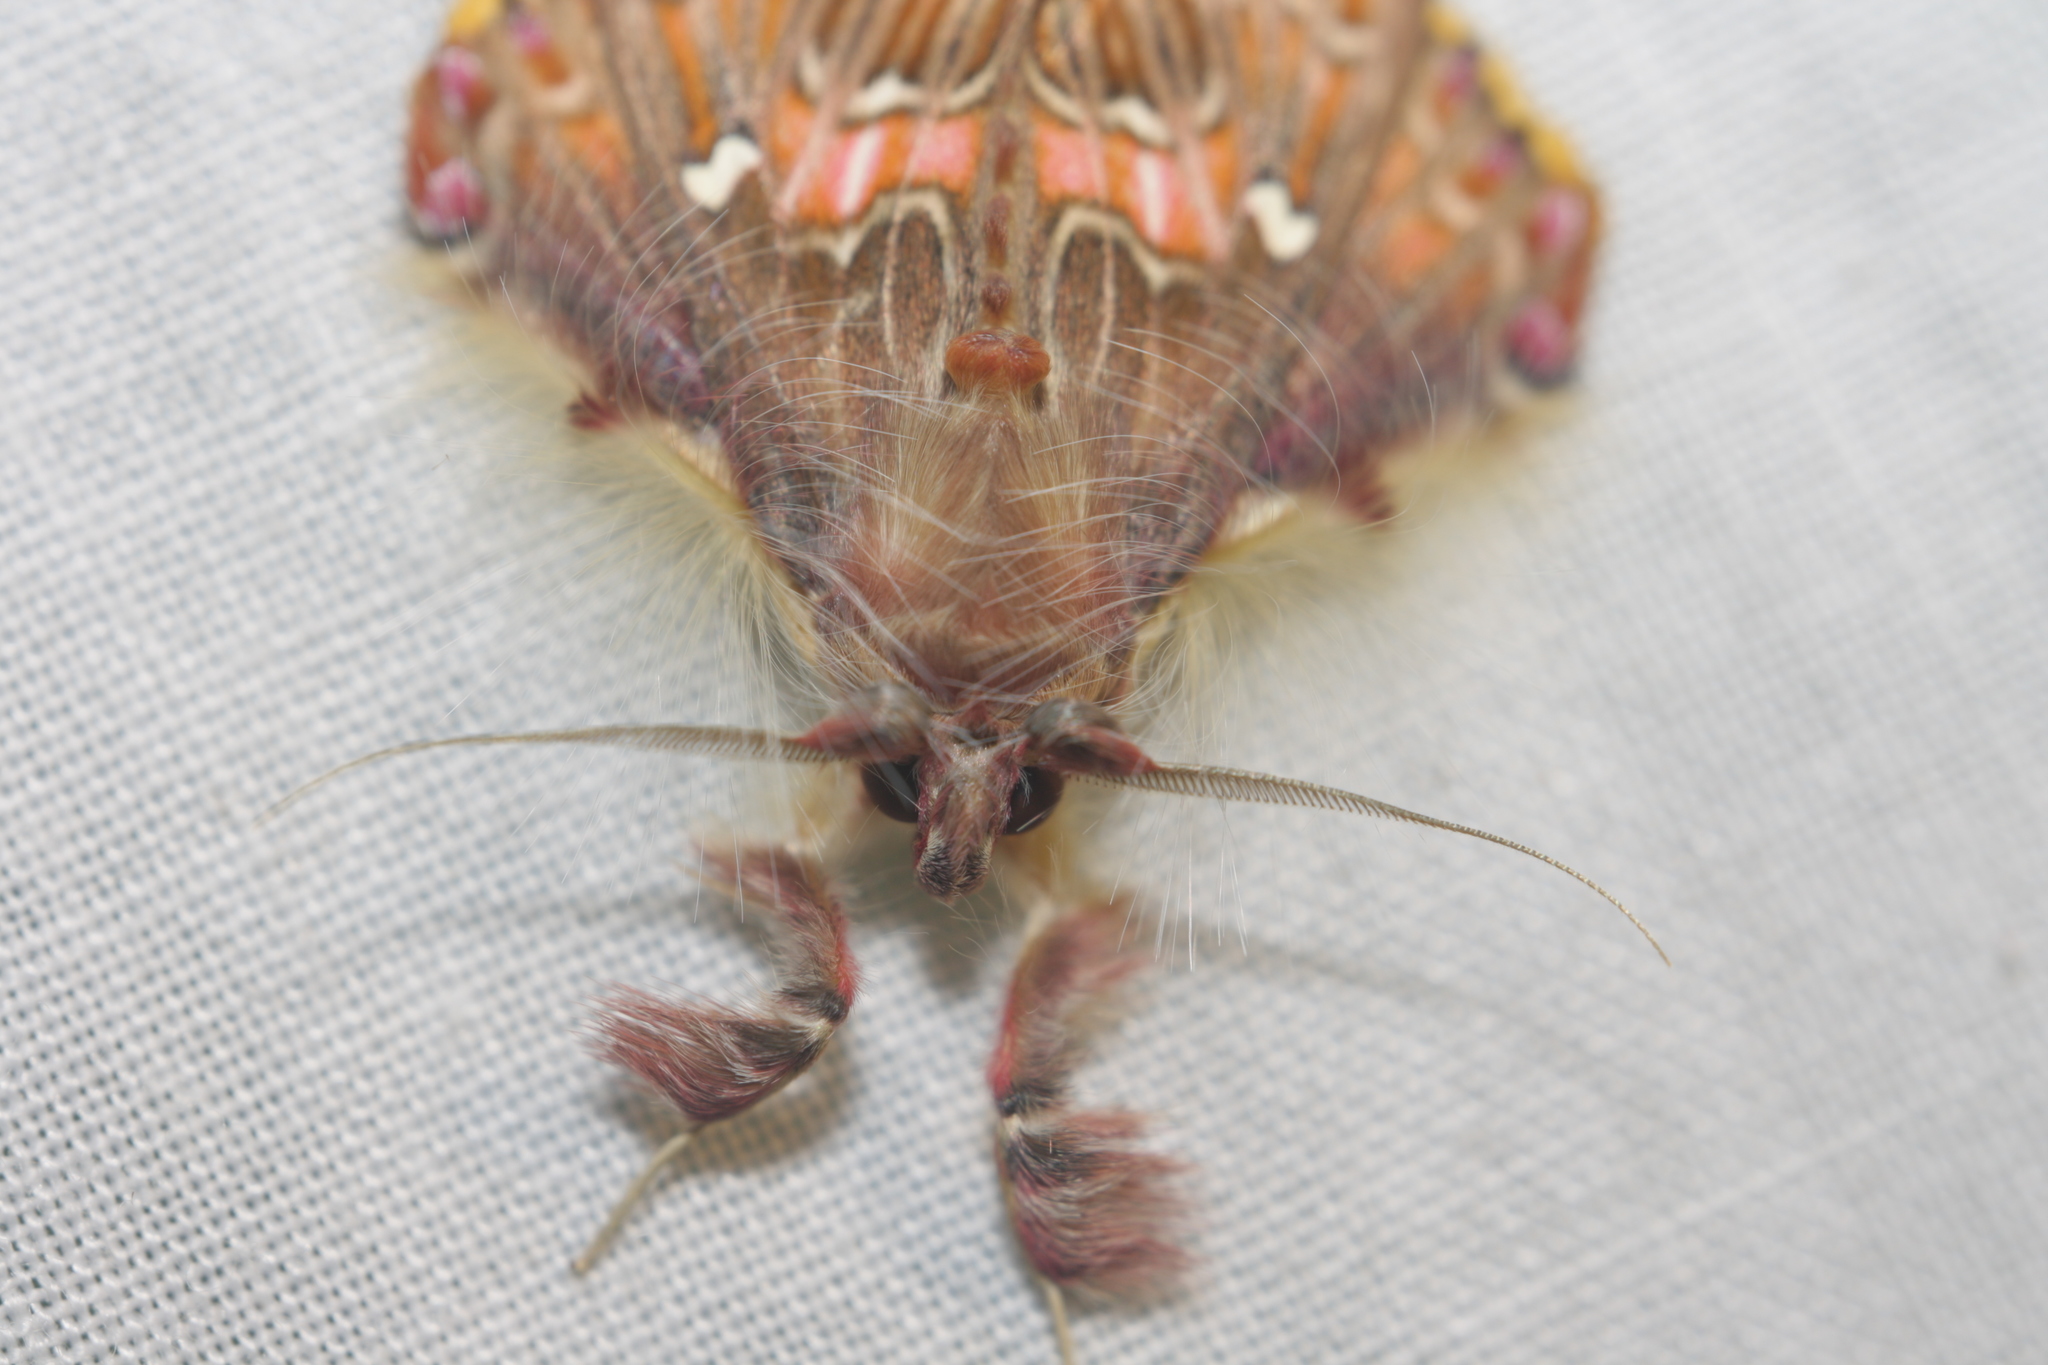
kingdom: Animalia
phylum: Arthropoda
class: Insecta
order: Lepidoptera
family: Erebidae
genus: Sosxetra
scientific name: Sosxetra grata
